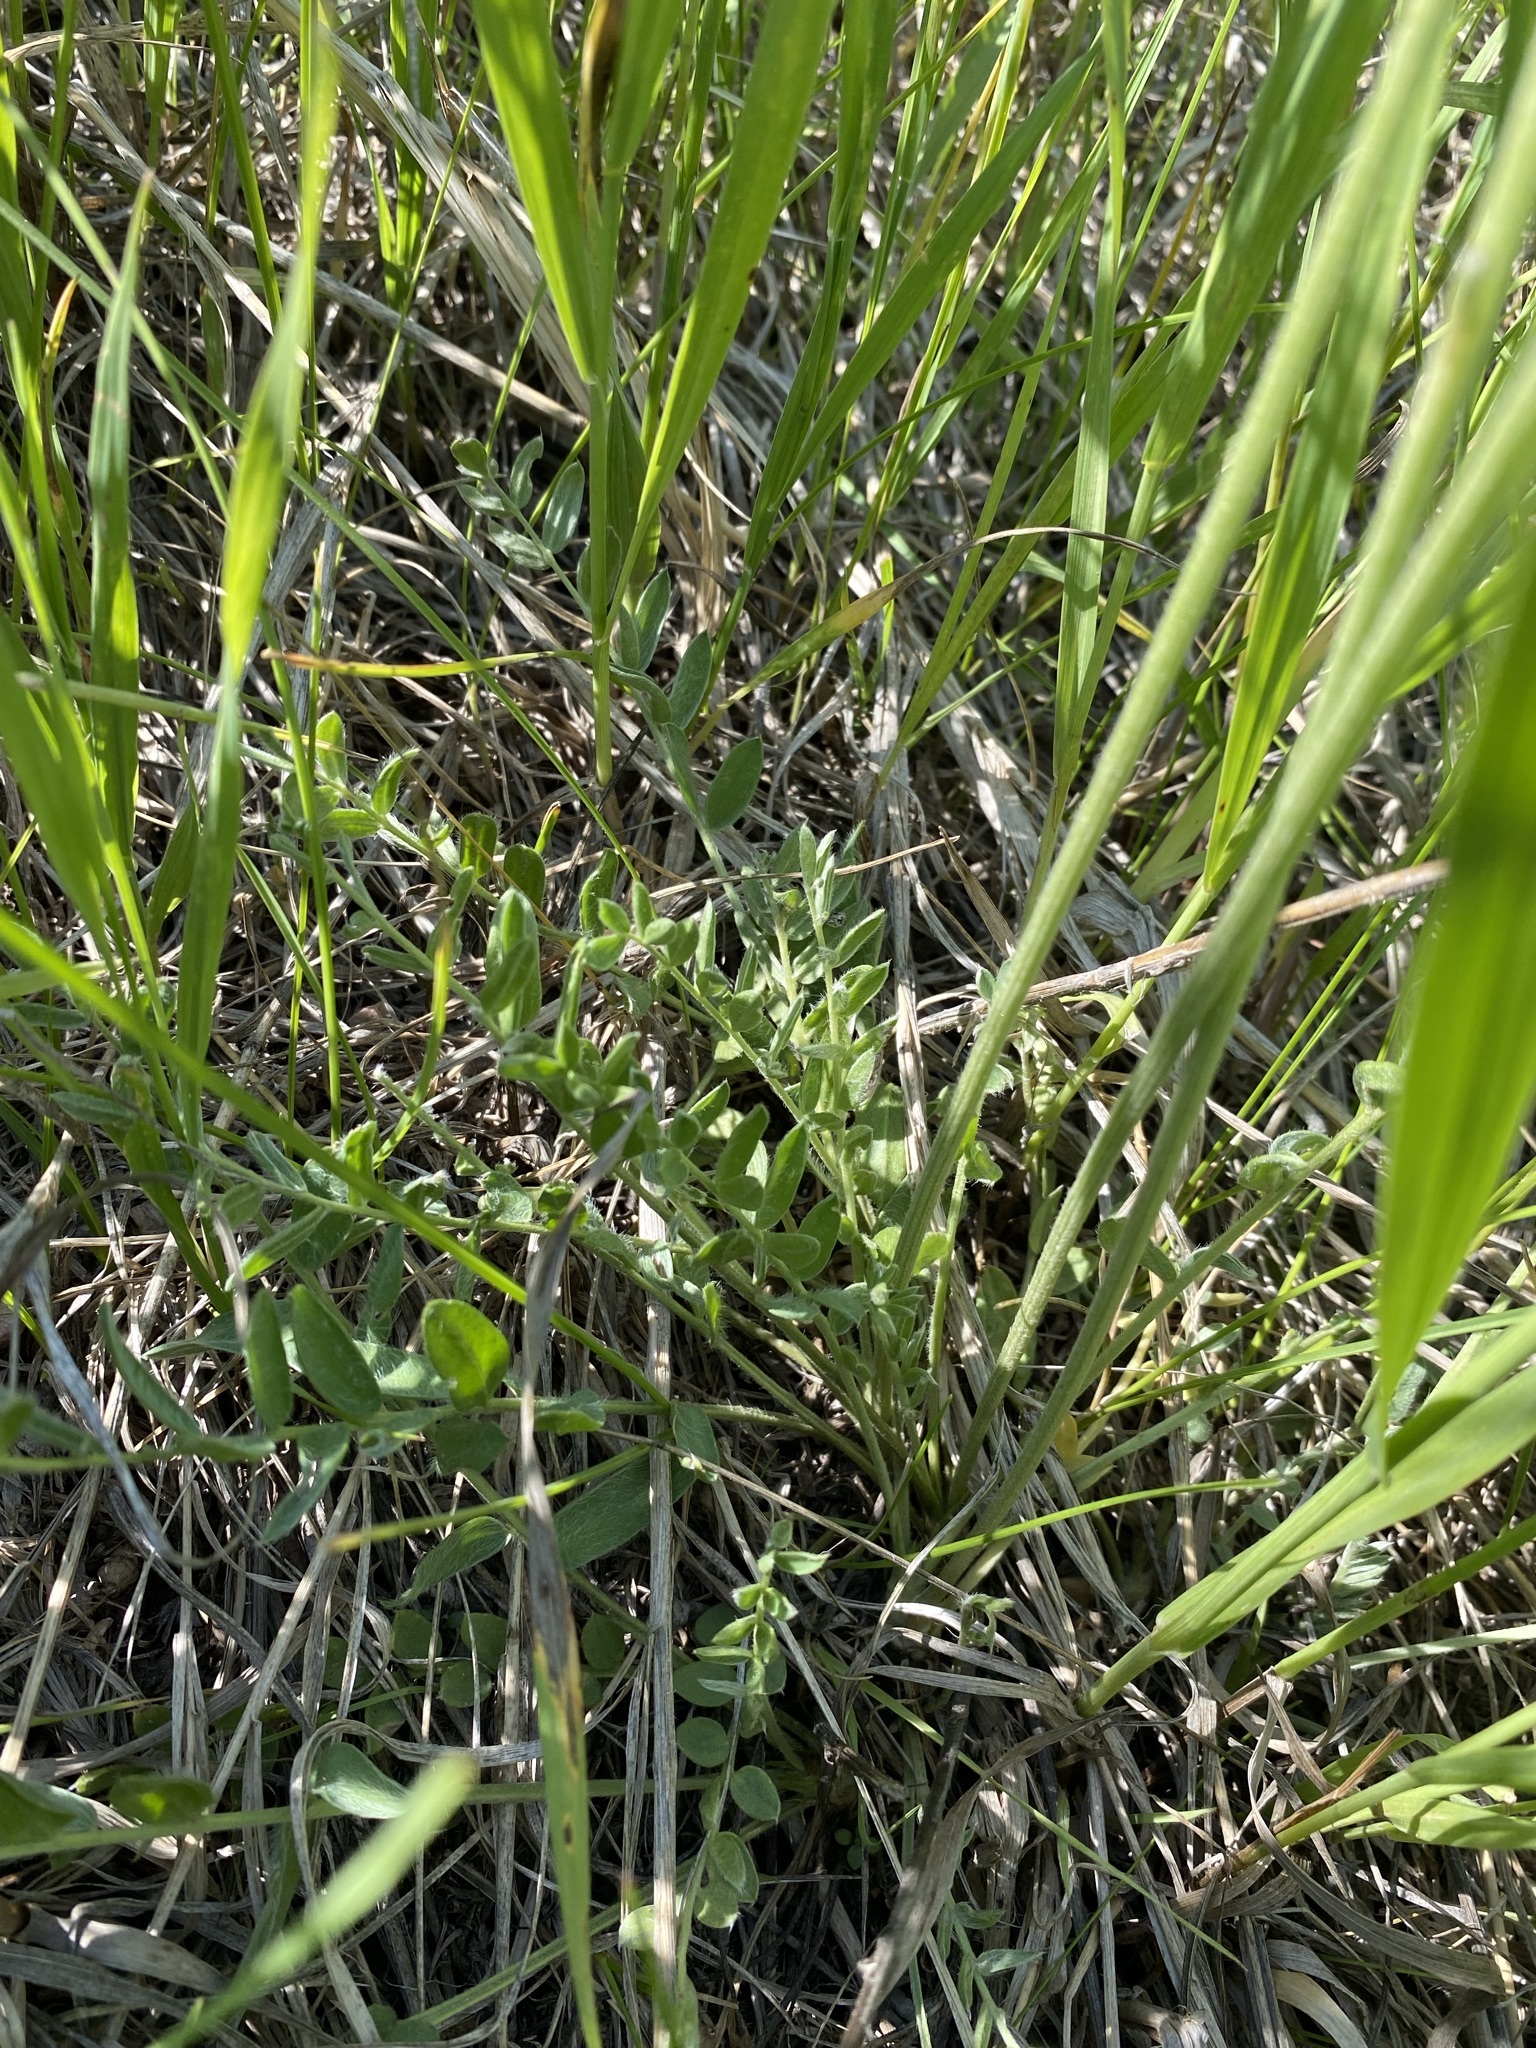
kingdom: Plantae
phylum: Tracheophyta
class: Magnoliopsida
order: Fabales
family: Fabaceae
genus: Oxytropis
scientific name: Oxytropis campestris
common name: Field locoweed
